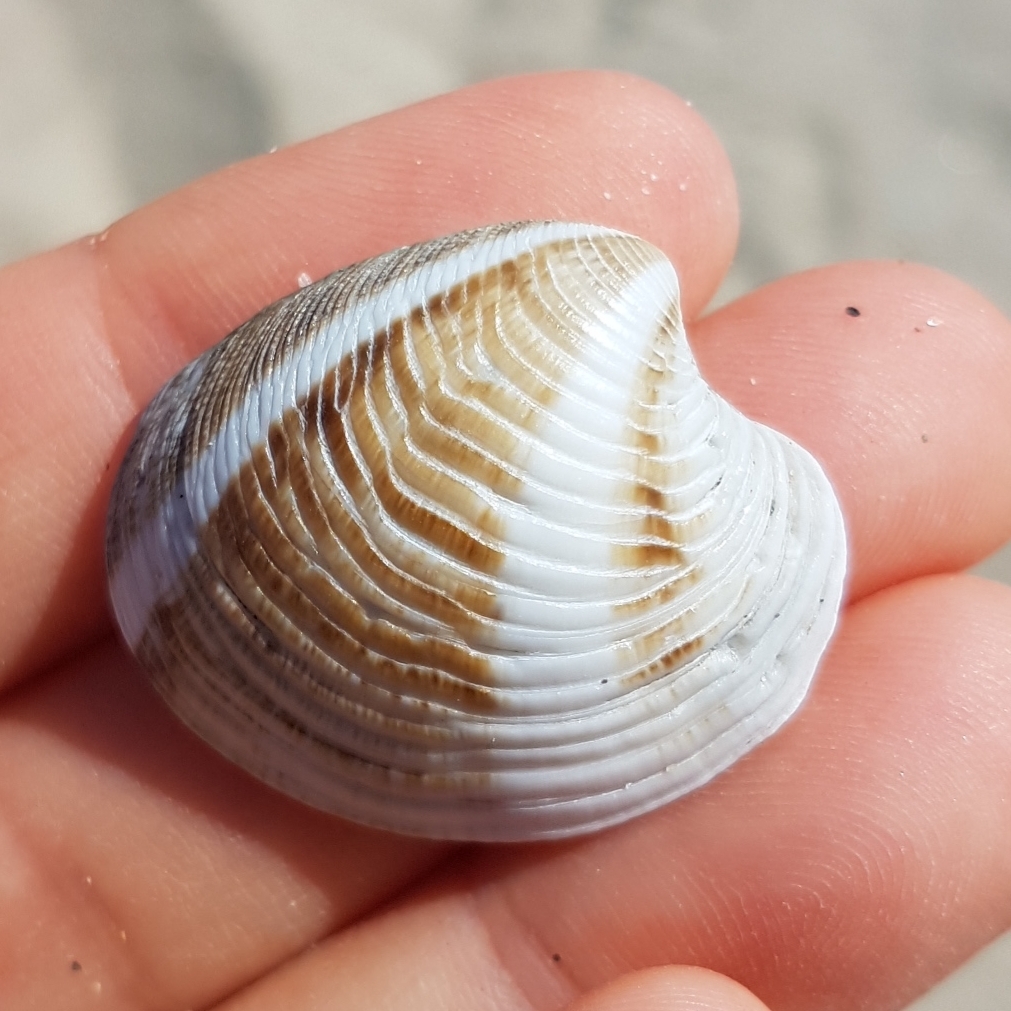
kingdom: Animalia
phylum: Mollusca
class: Bivalvia
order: Venerida
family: Veneridae
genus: Chamelea
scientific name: Chamelea gallina
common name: Chicken venus
